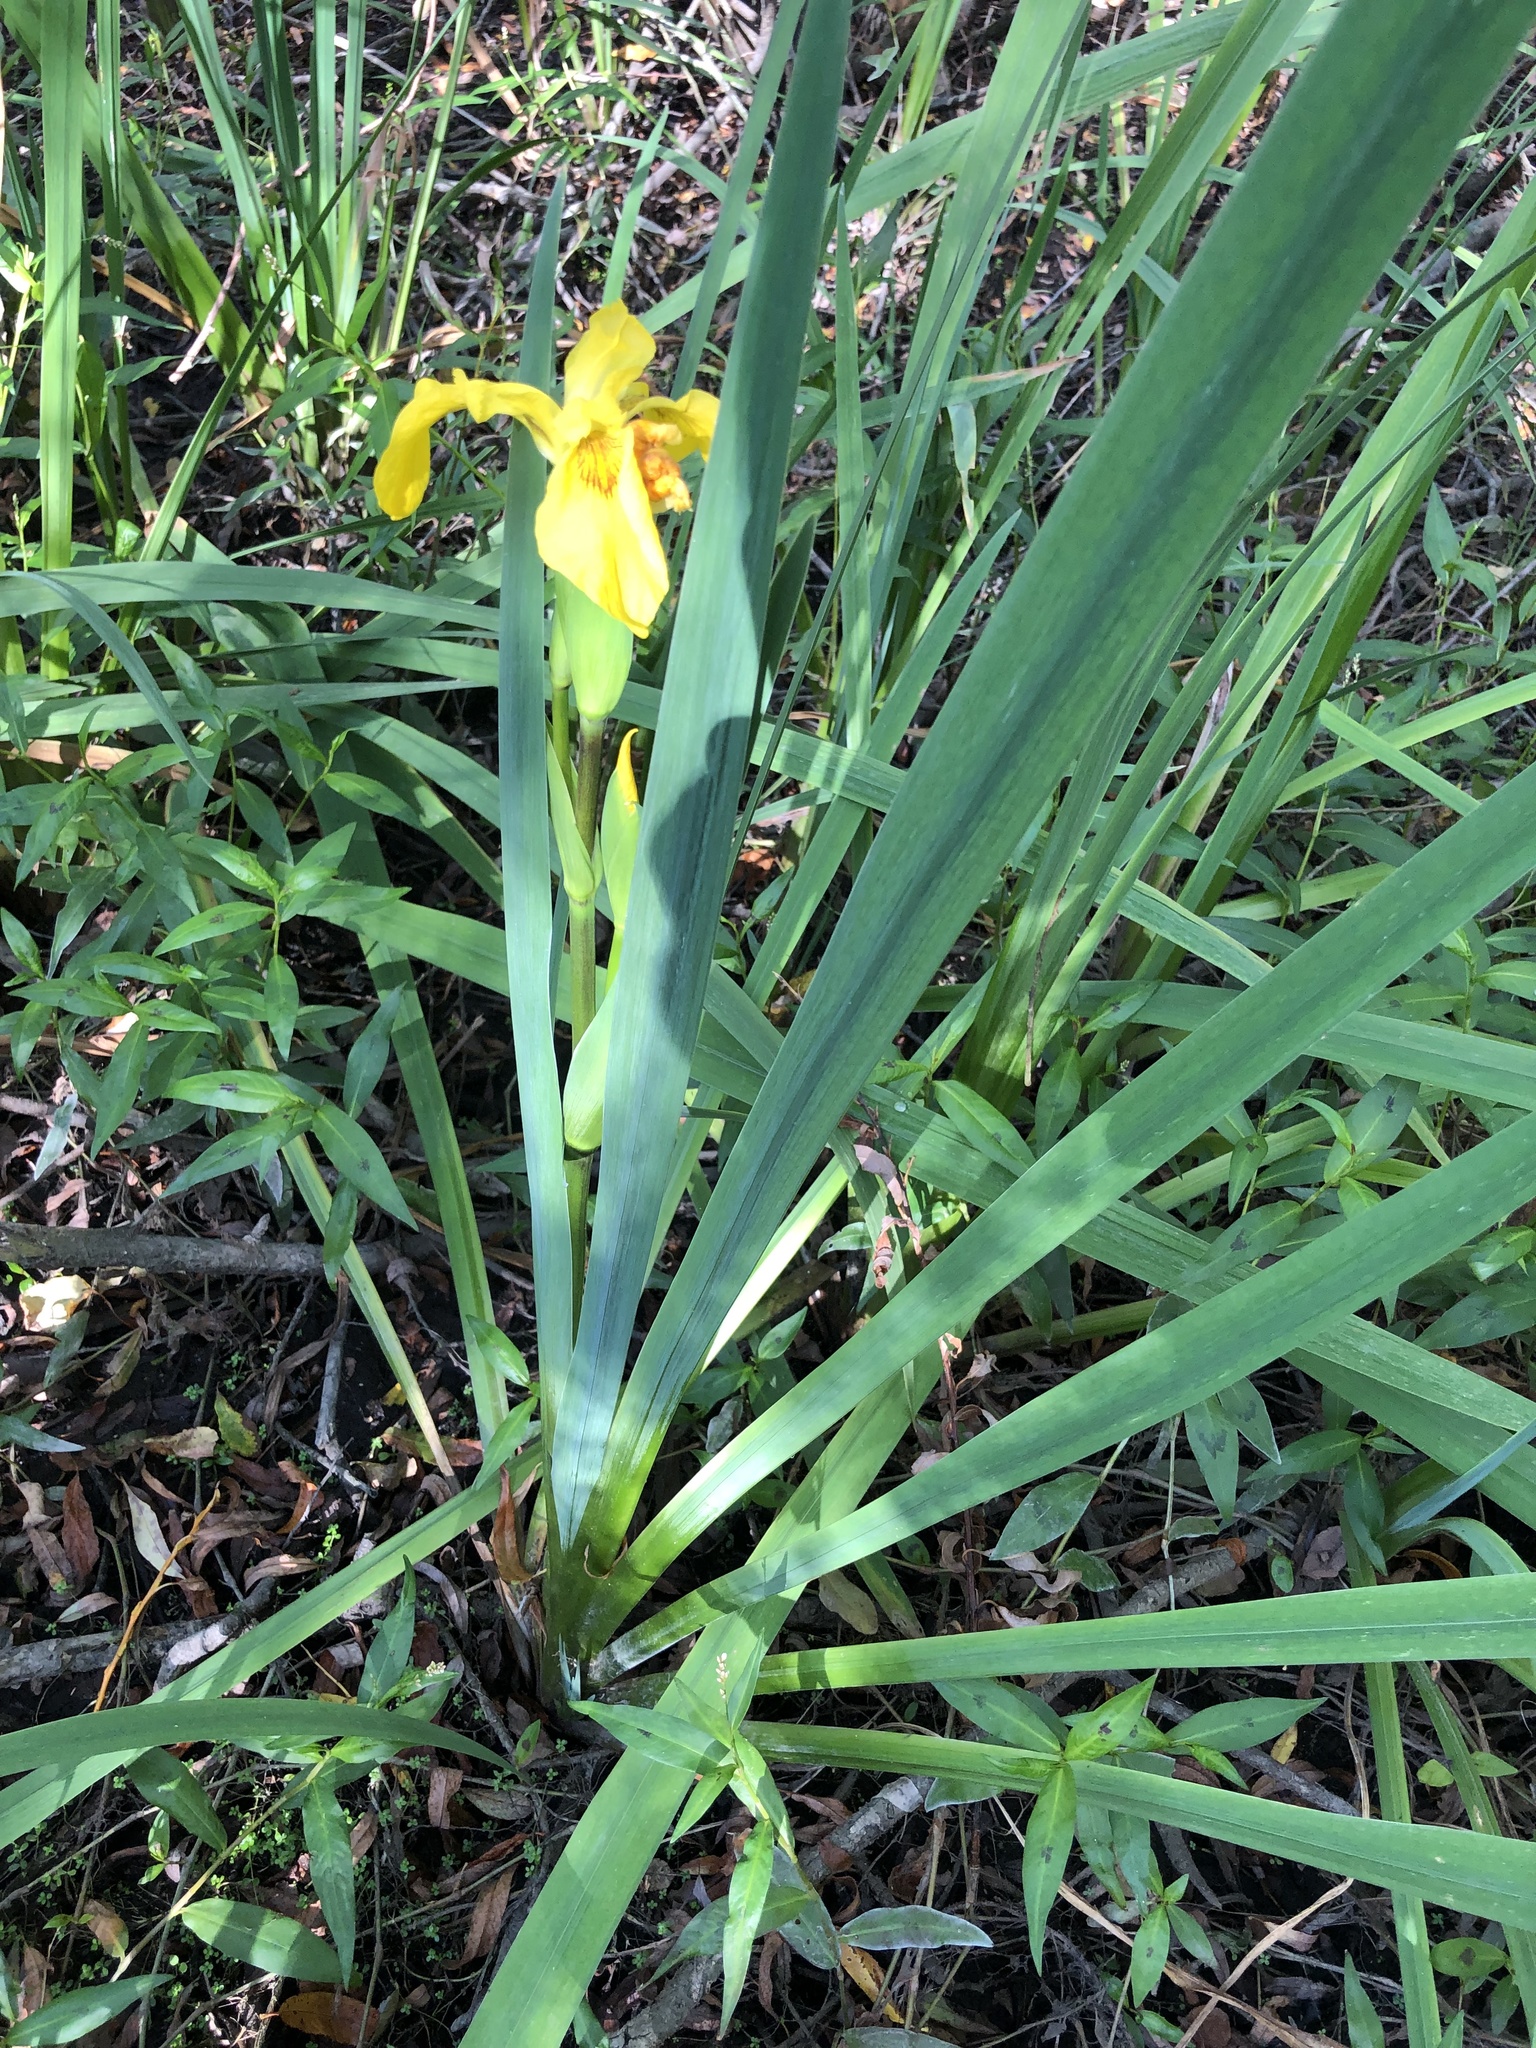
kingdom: Plantae
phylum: Tracheophyta
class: Liliopsida
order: Asparagales
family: Iridaceae
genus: Iris
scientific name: Iris pseudacorus
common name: Yellow flag
